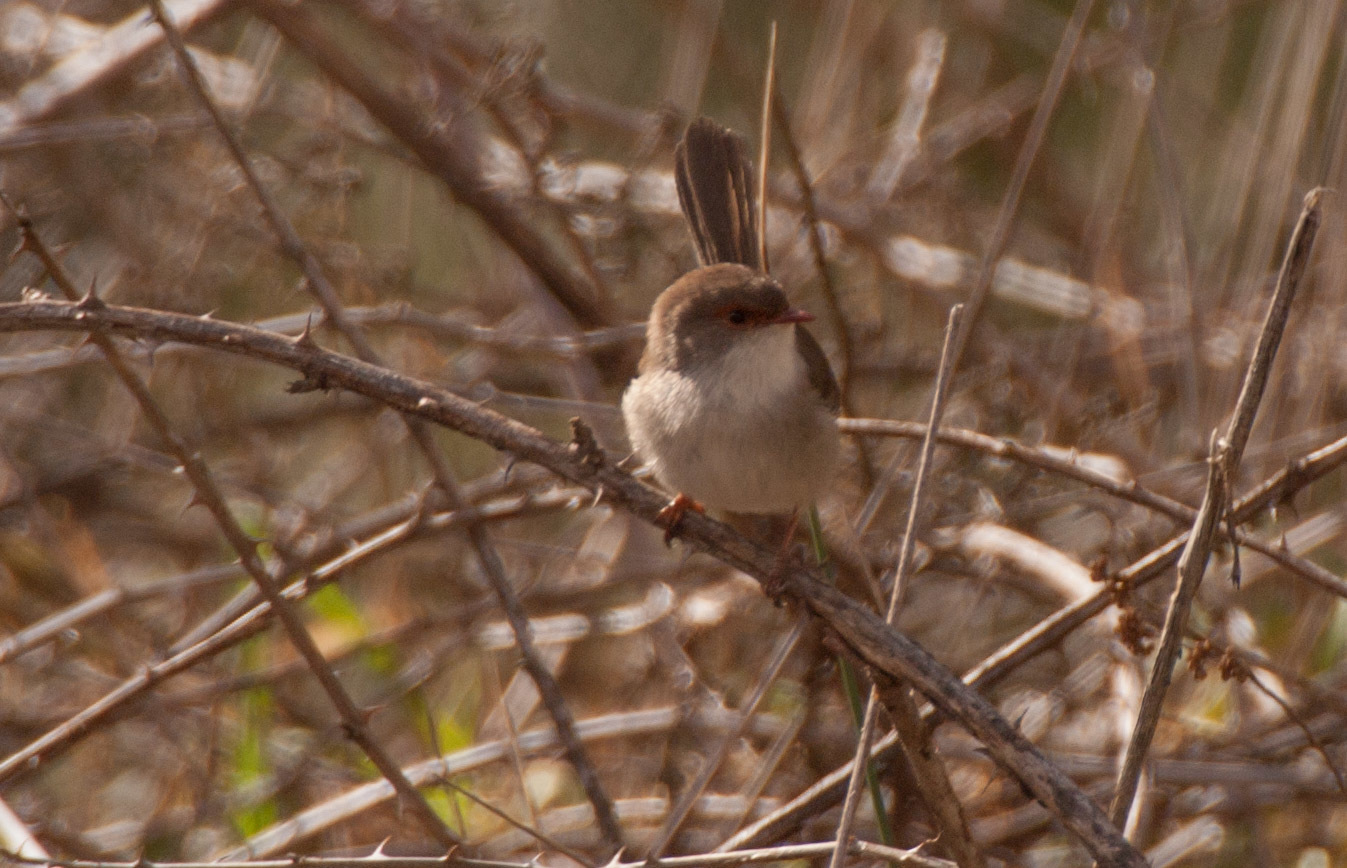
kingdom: Animalia
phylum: Chordata
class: Aves
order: Passeriformes
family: Maluridae
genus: Malurus
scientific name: Malurus cyaneus
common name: Superb fairywren
